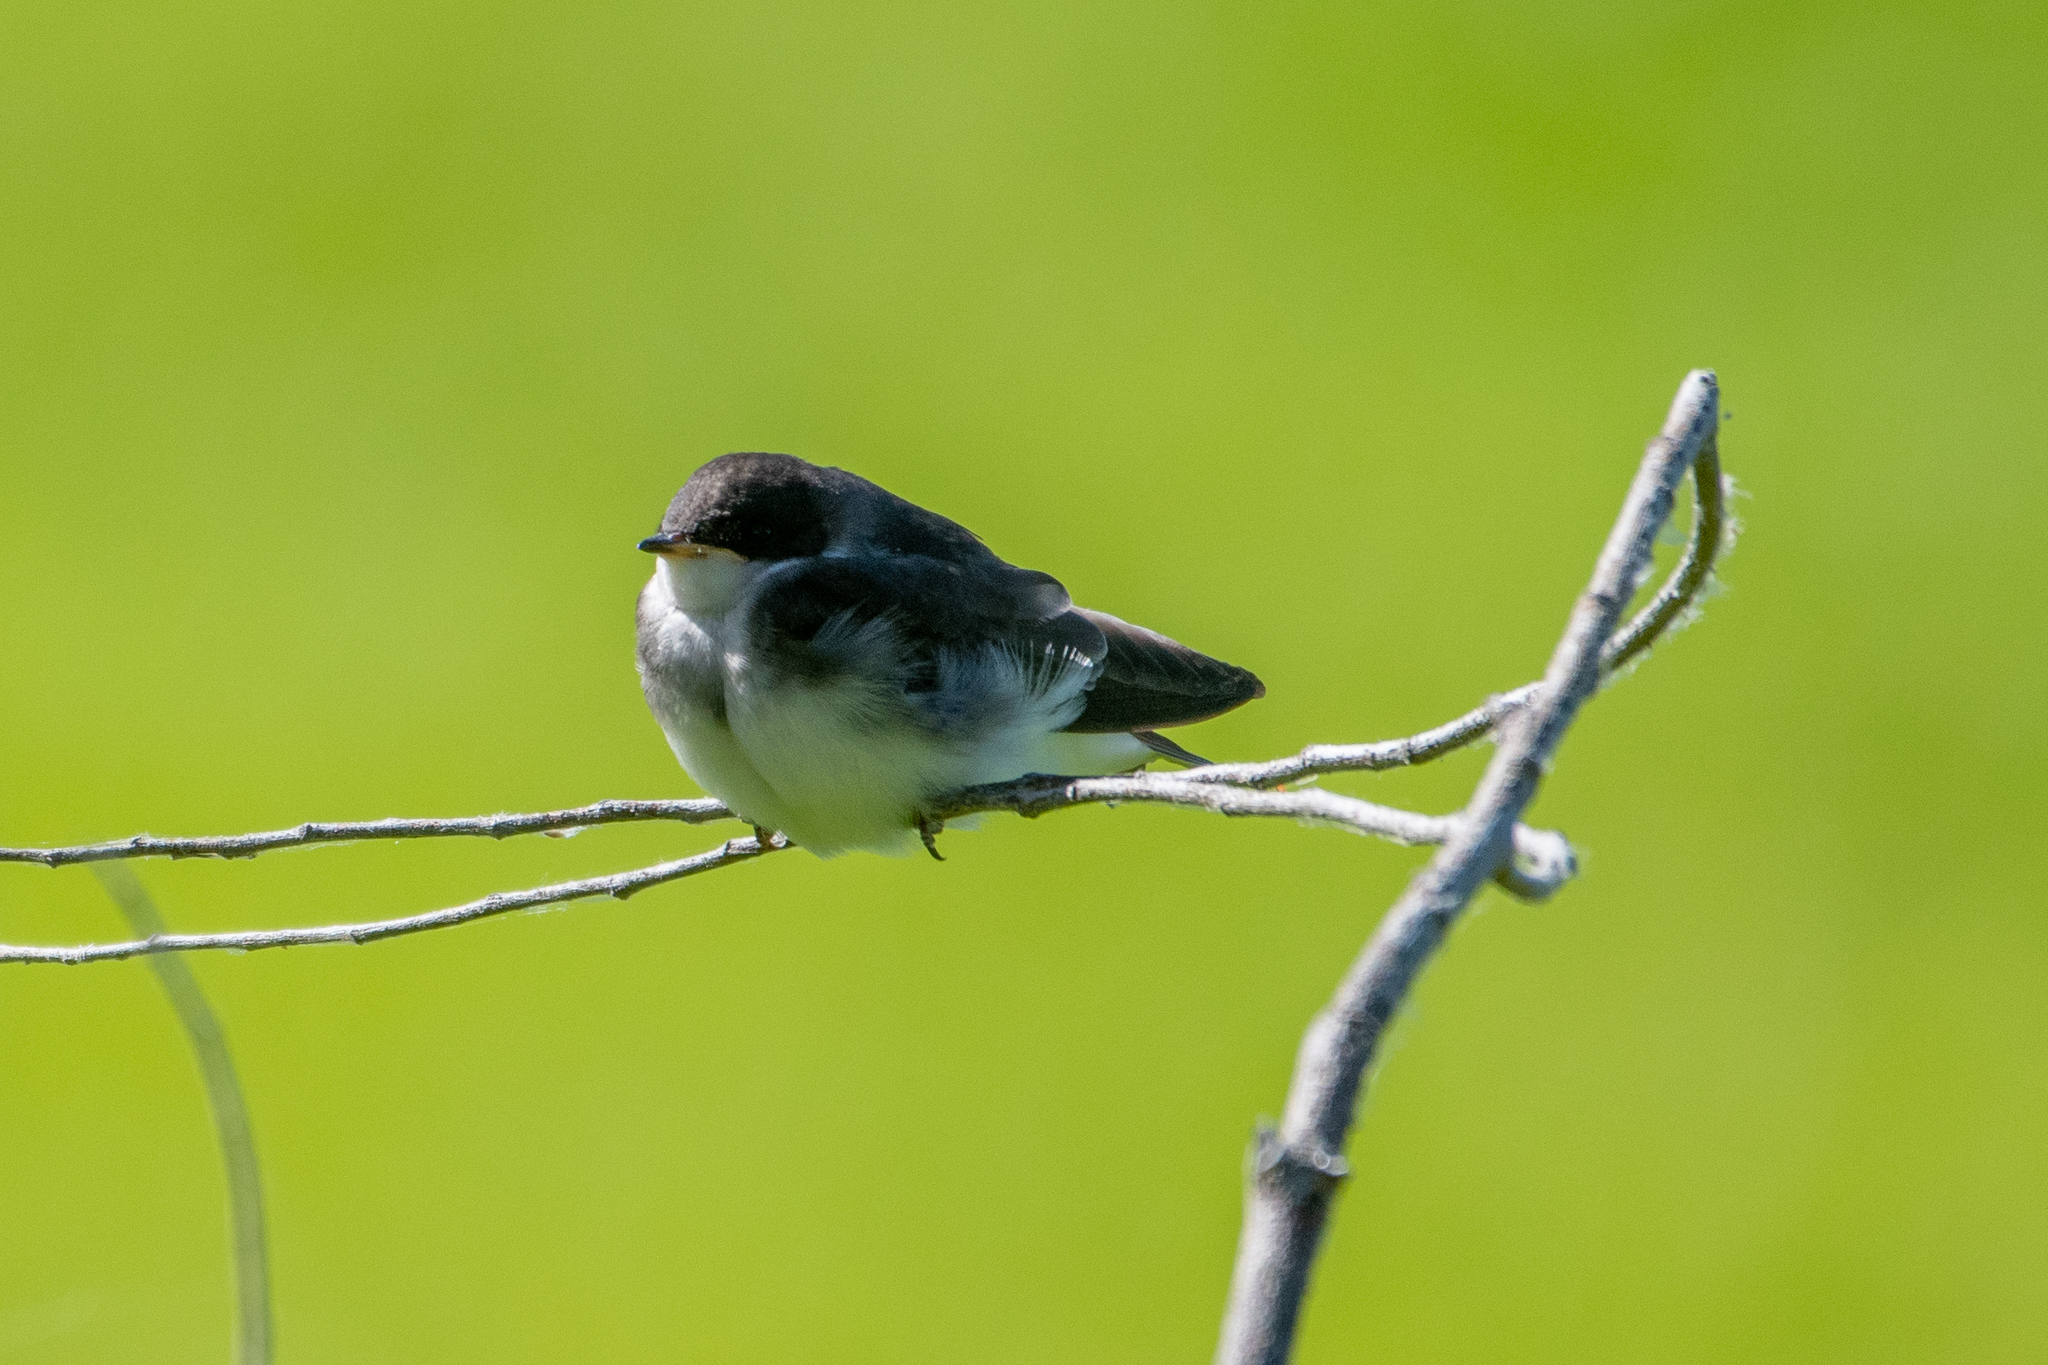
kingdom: Animalia
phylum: Chordata
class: Aves
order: Passeriformes
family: Hirundinidae
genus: Tachycineta
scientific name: Tachycineta bicolor
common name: Tree swallow
